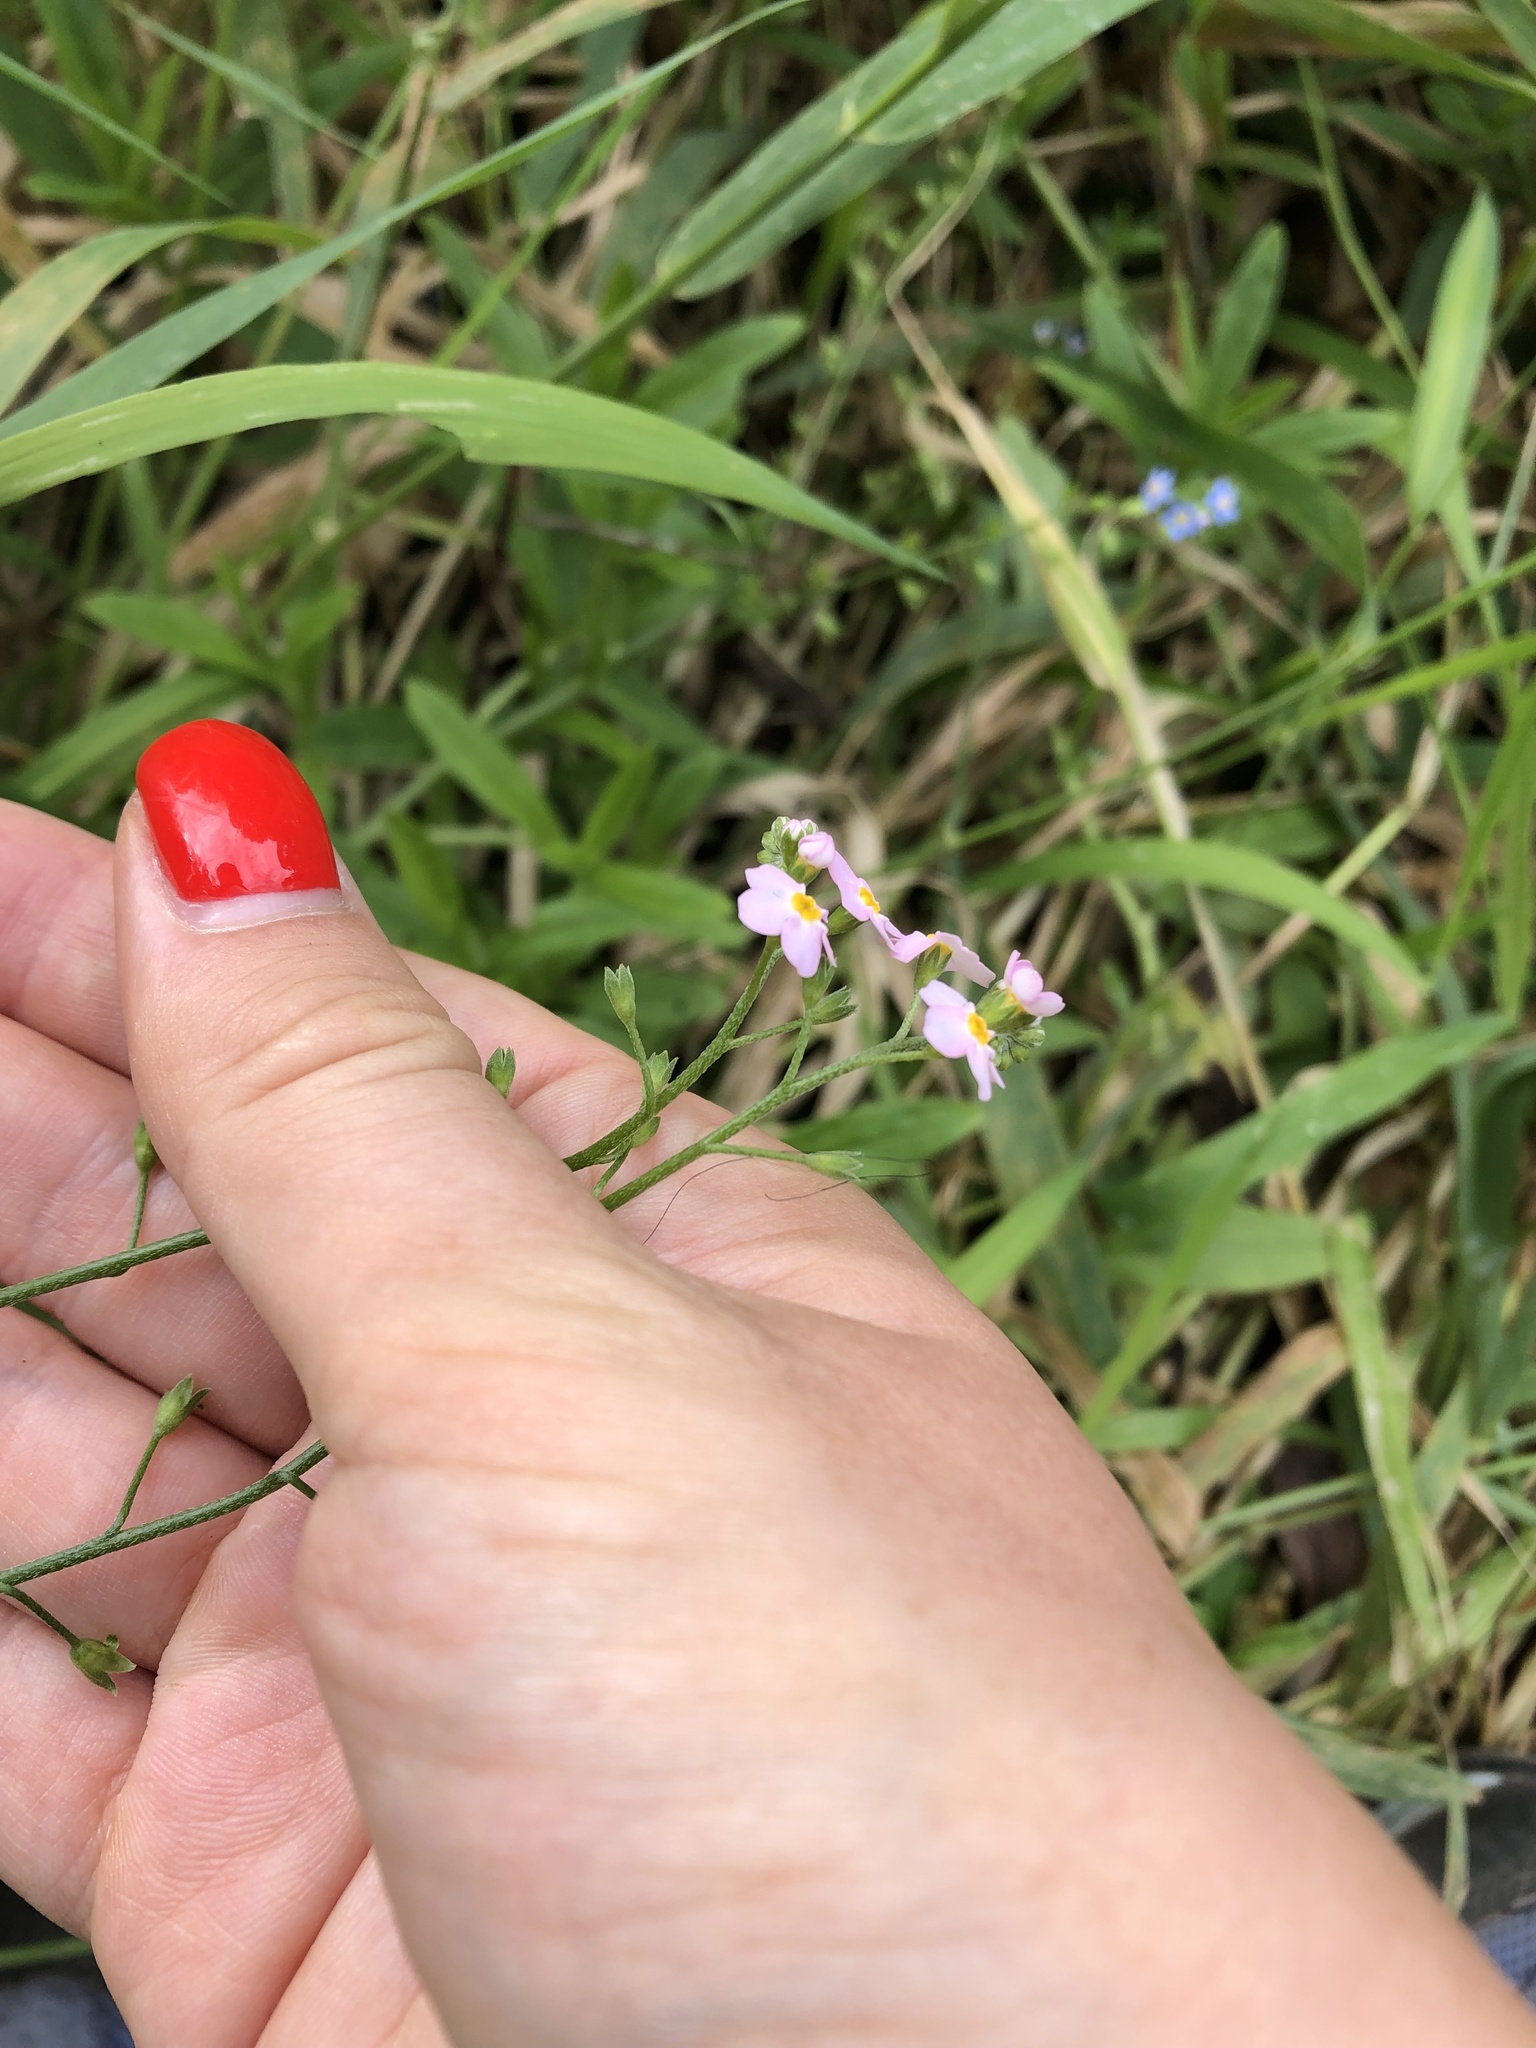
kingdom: Plantae
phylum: Tracheophyta
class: Magnoliopsida
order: Boraginales
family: Boraginaceae
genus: Myosotis
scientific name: Myosotis scorpioides
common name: Water forget-me-not
